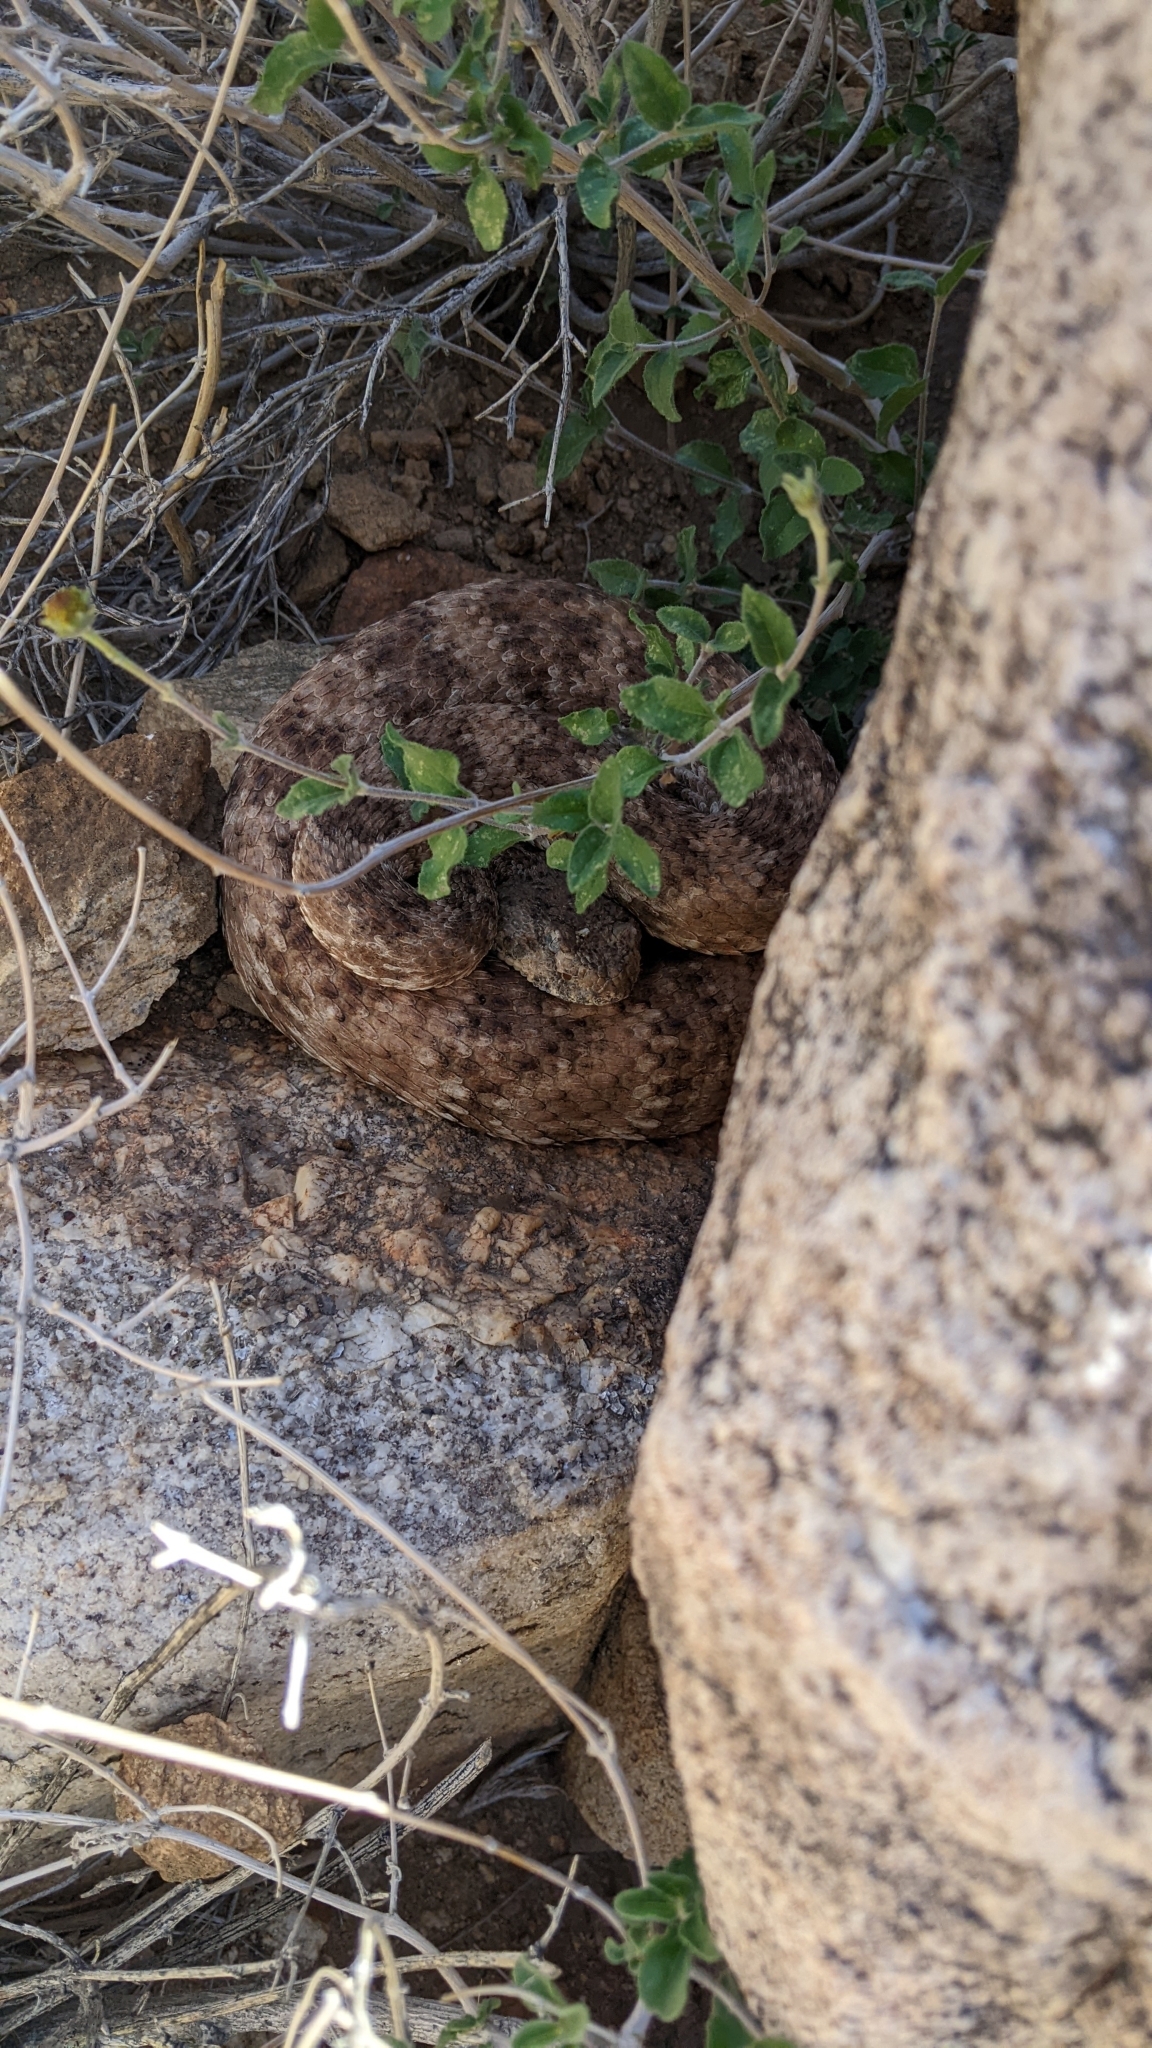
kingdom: Animalia
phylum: Chordata
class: Squamata
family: Viperidae
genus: Crotalus
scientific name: Crotalus pyrrhus
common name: Southwestern speckled rattlesnake
